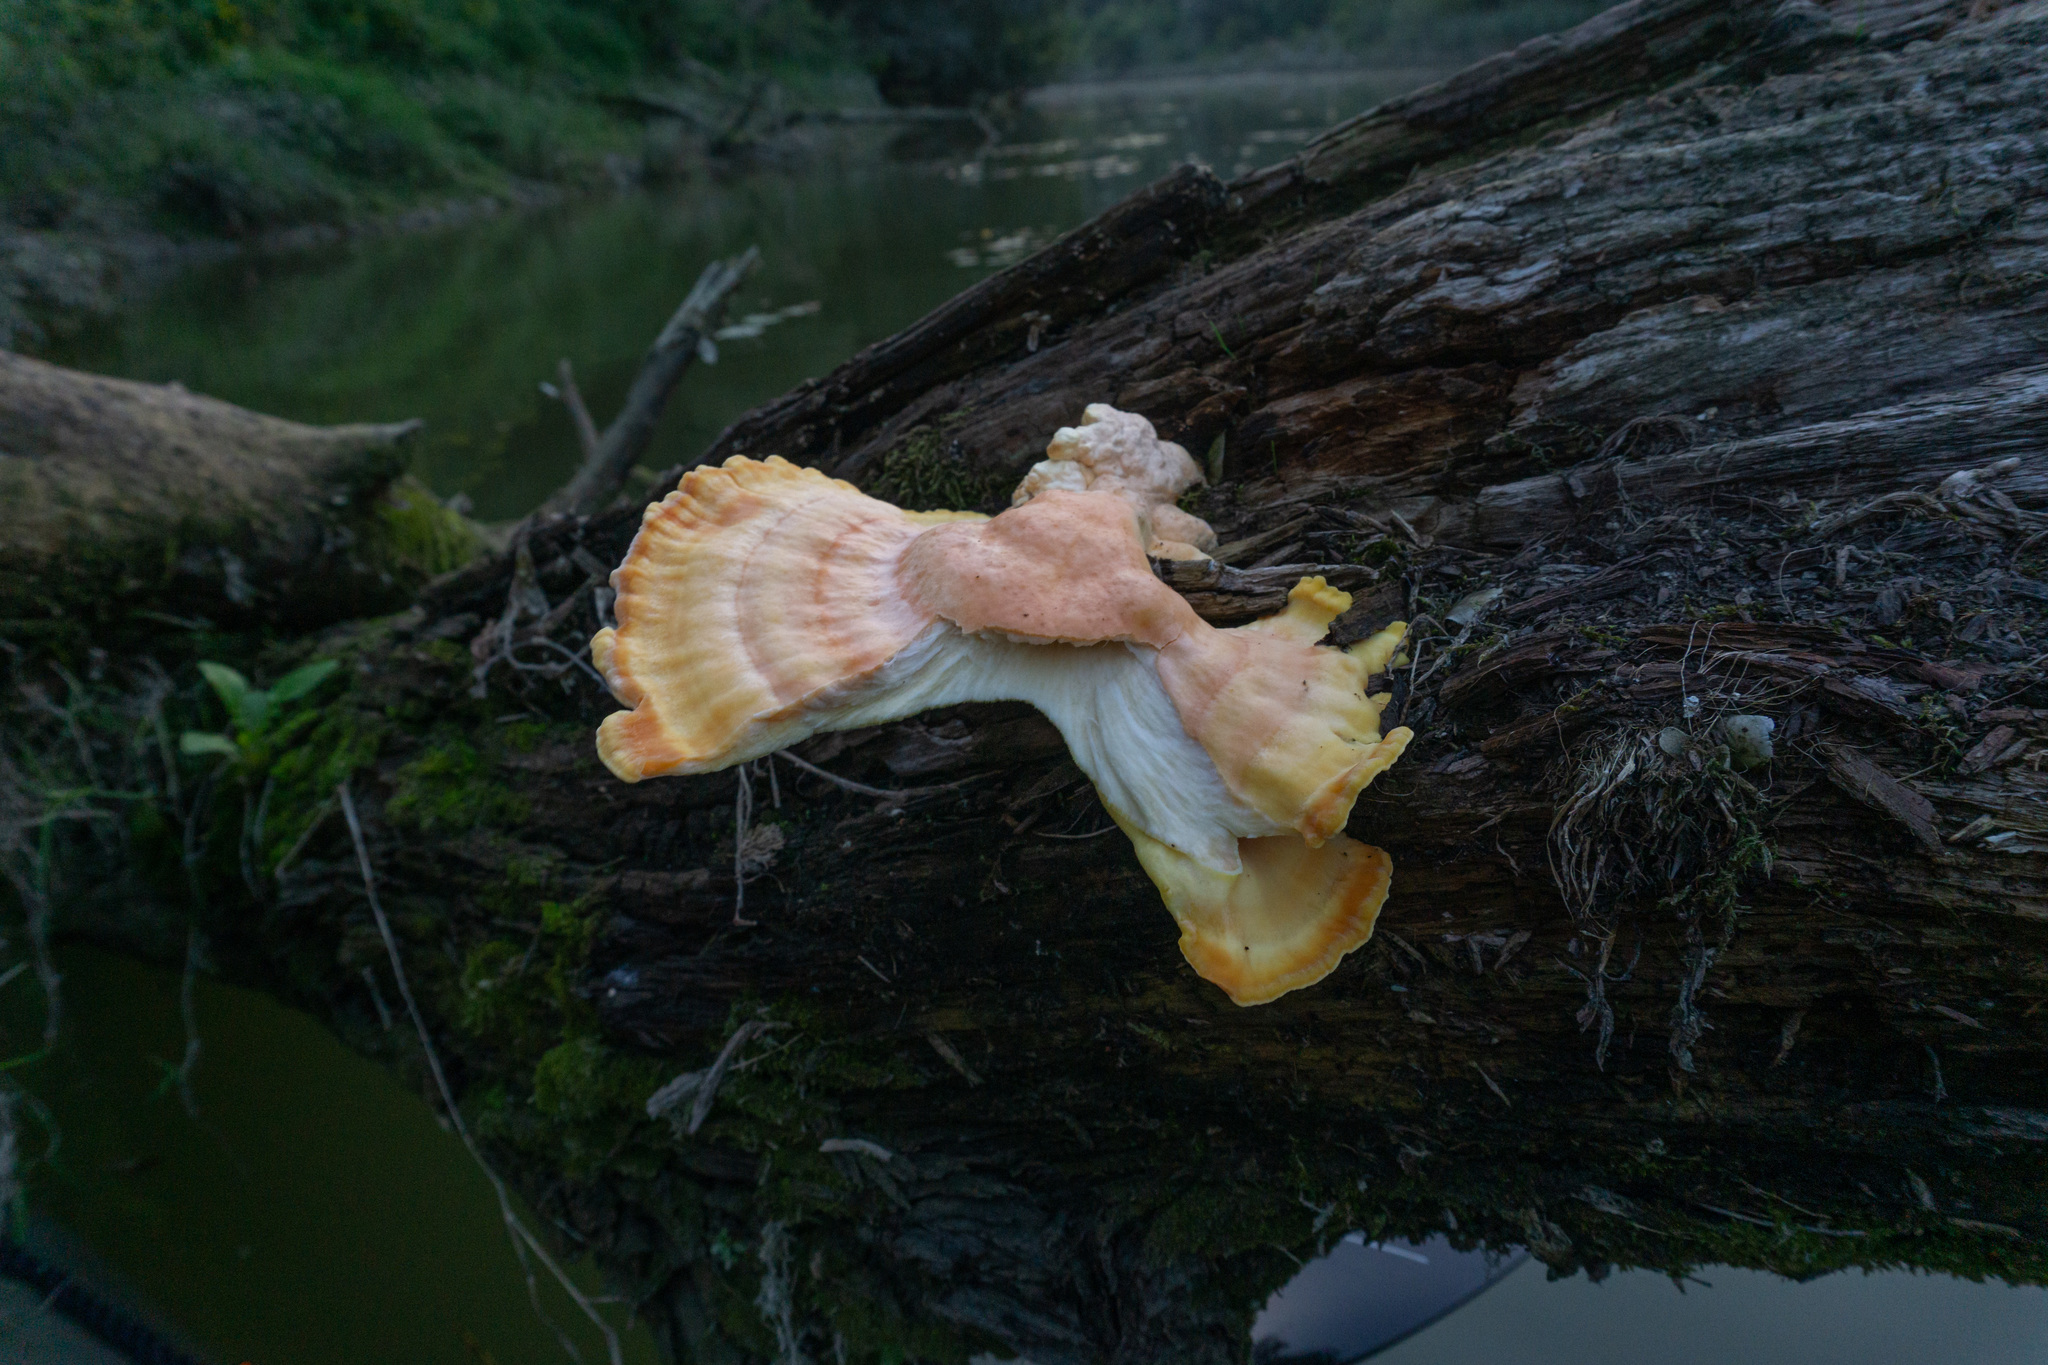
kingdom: Fungi
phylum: Basidiomycota
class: Agaricomycetes
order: Polyporales
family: Laetiporaceae
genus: Laetiporus
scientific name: Laetiporus sulphureus
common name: Chicken of the woods
